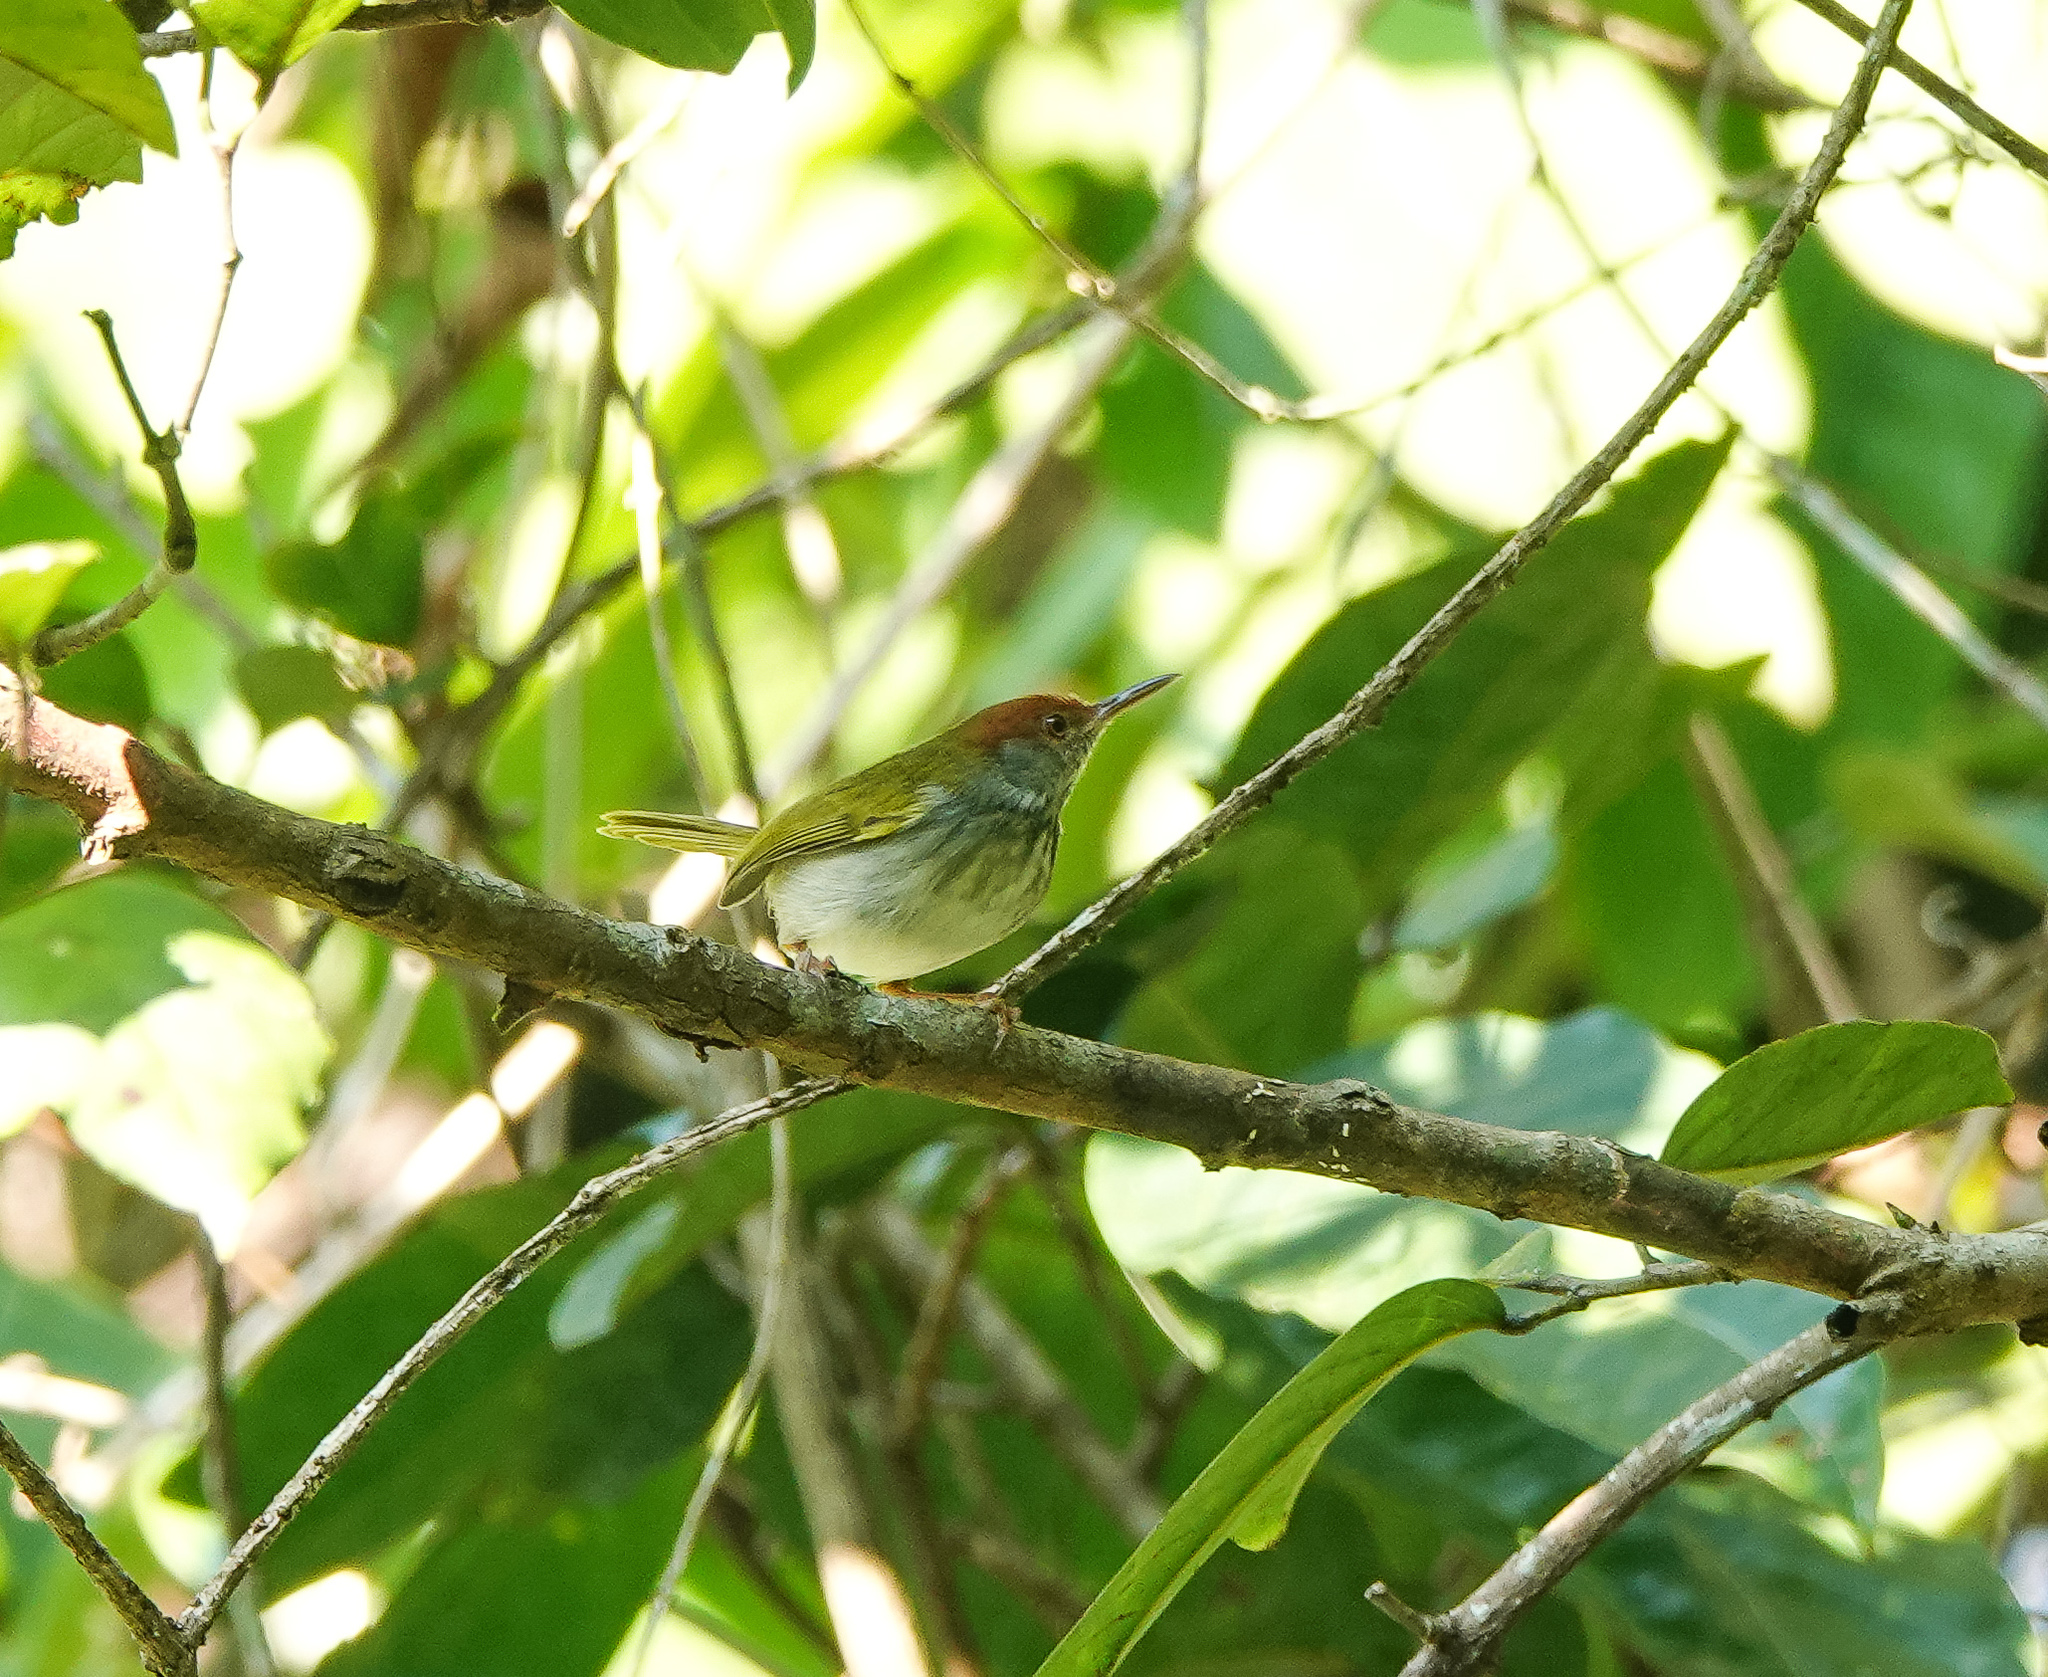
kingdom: Animalia
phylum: Chordata
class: Aves
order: Passeriformes
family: Cisticolidae
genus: Orthotomus
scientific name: Orthotomus atrogularis
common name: Dark-necked tailorbird
